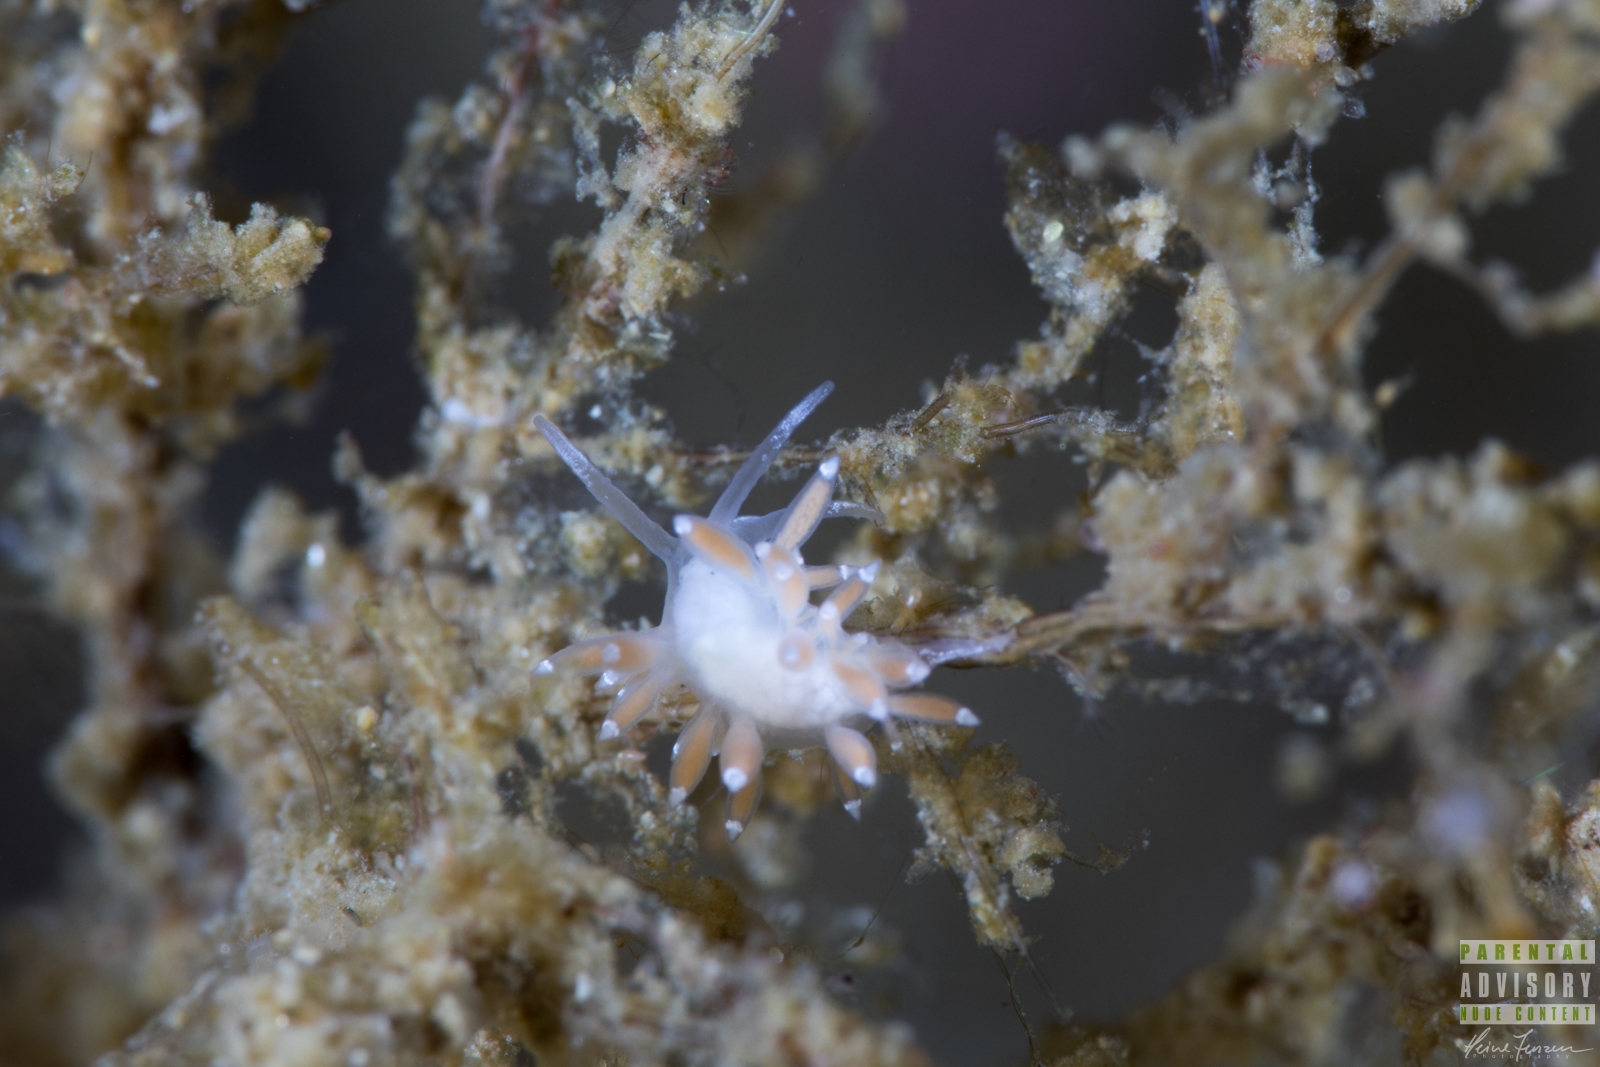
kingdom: Animalia
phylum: Mollusca
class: Gastropoda
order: Nudibranchia
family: Coryphellidae
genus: Coryphella
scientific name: Coryphella gracilis
